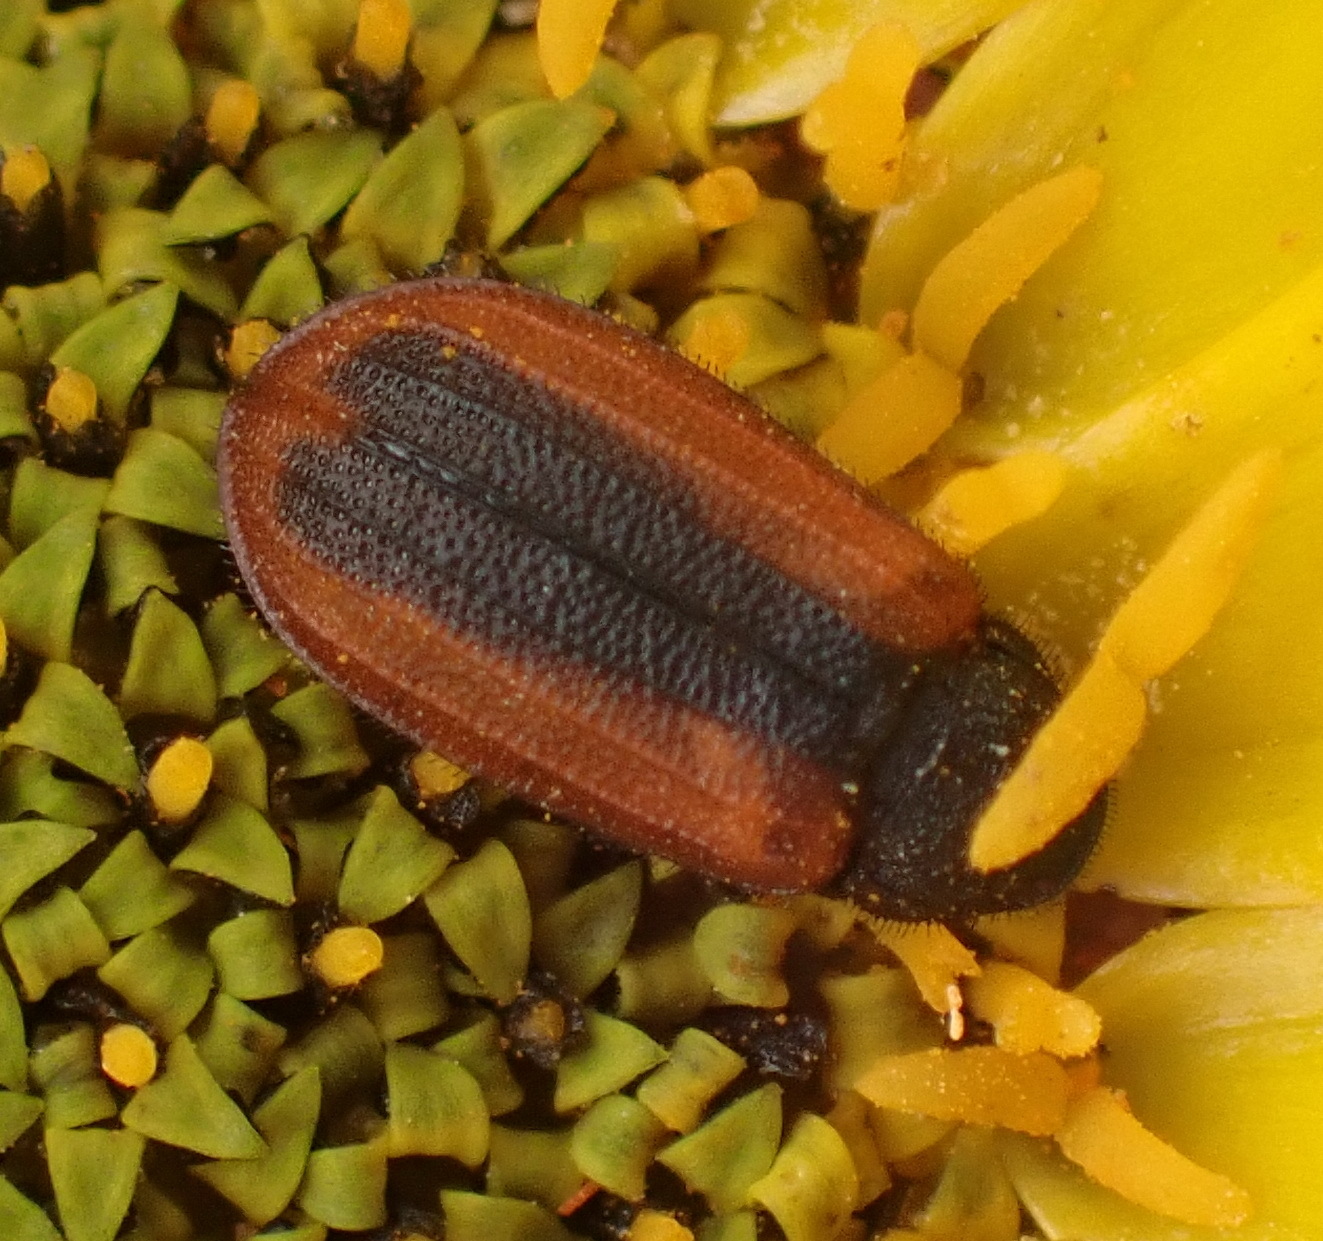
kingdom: Animalia
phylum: Arthropoda
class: Insecta
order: Coleoptera
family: Melyridae
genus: Melyris
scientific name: Melyris
